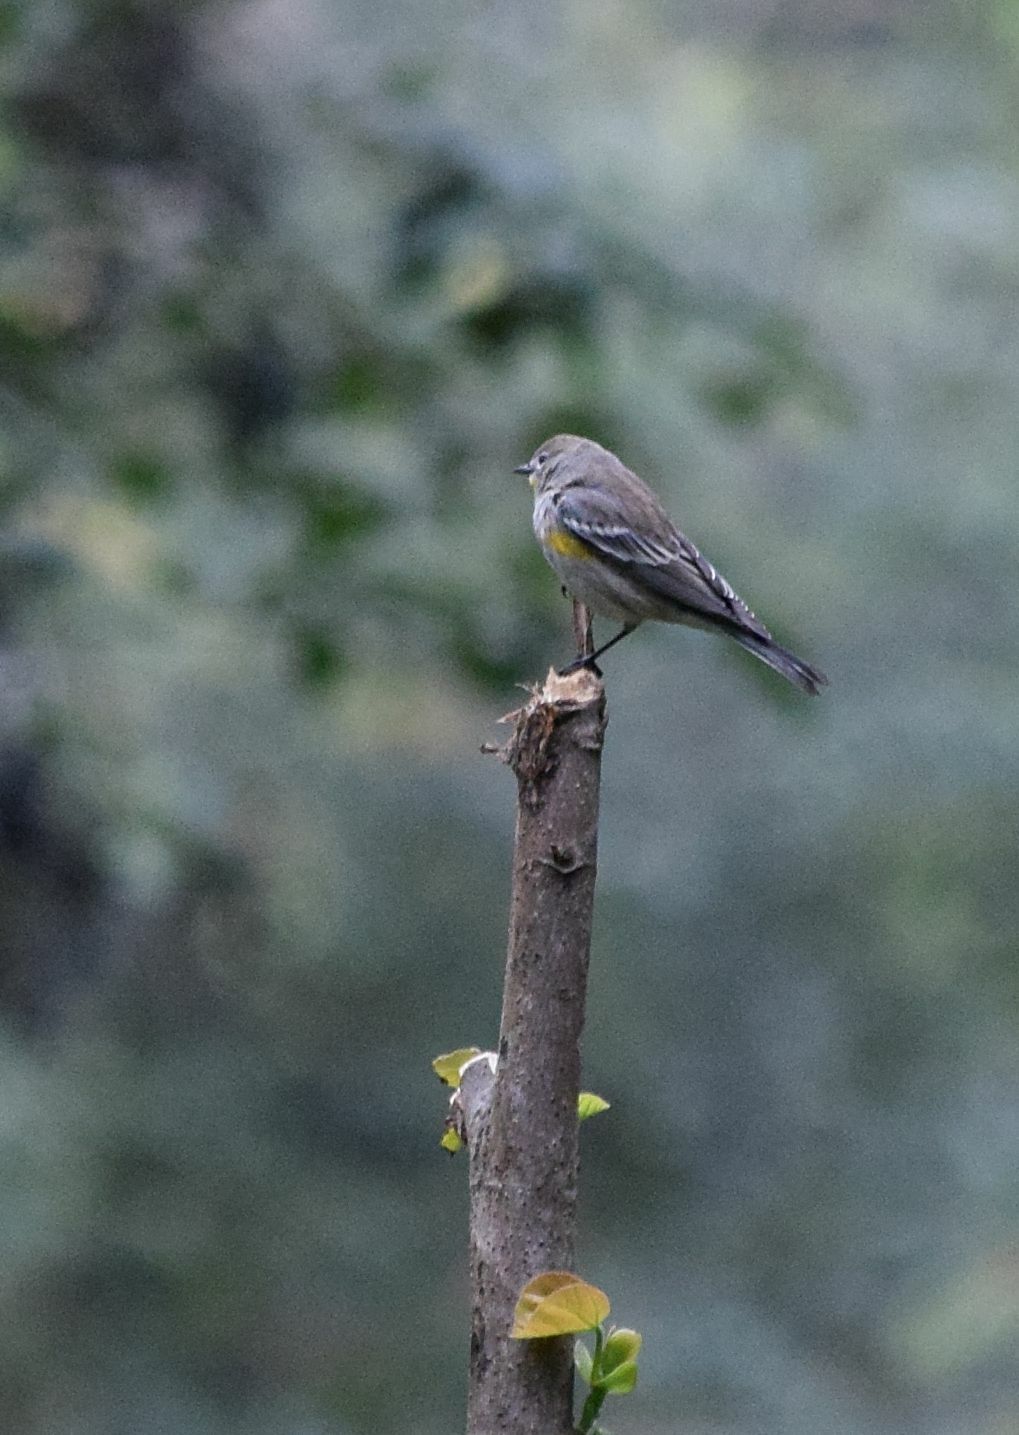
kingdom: Animalia
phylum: Chordata
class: Aves
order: Passeriformes
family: Parulidae
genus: Setophaga
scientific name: Setophaga coronata
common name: Myrtle warbler
